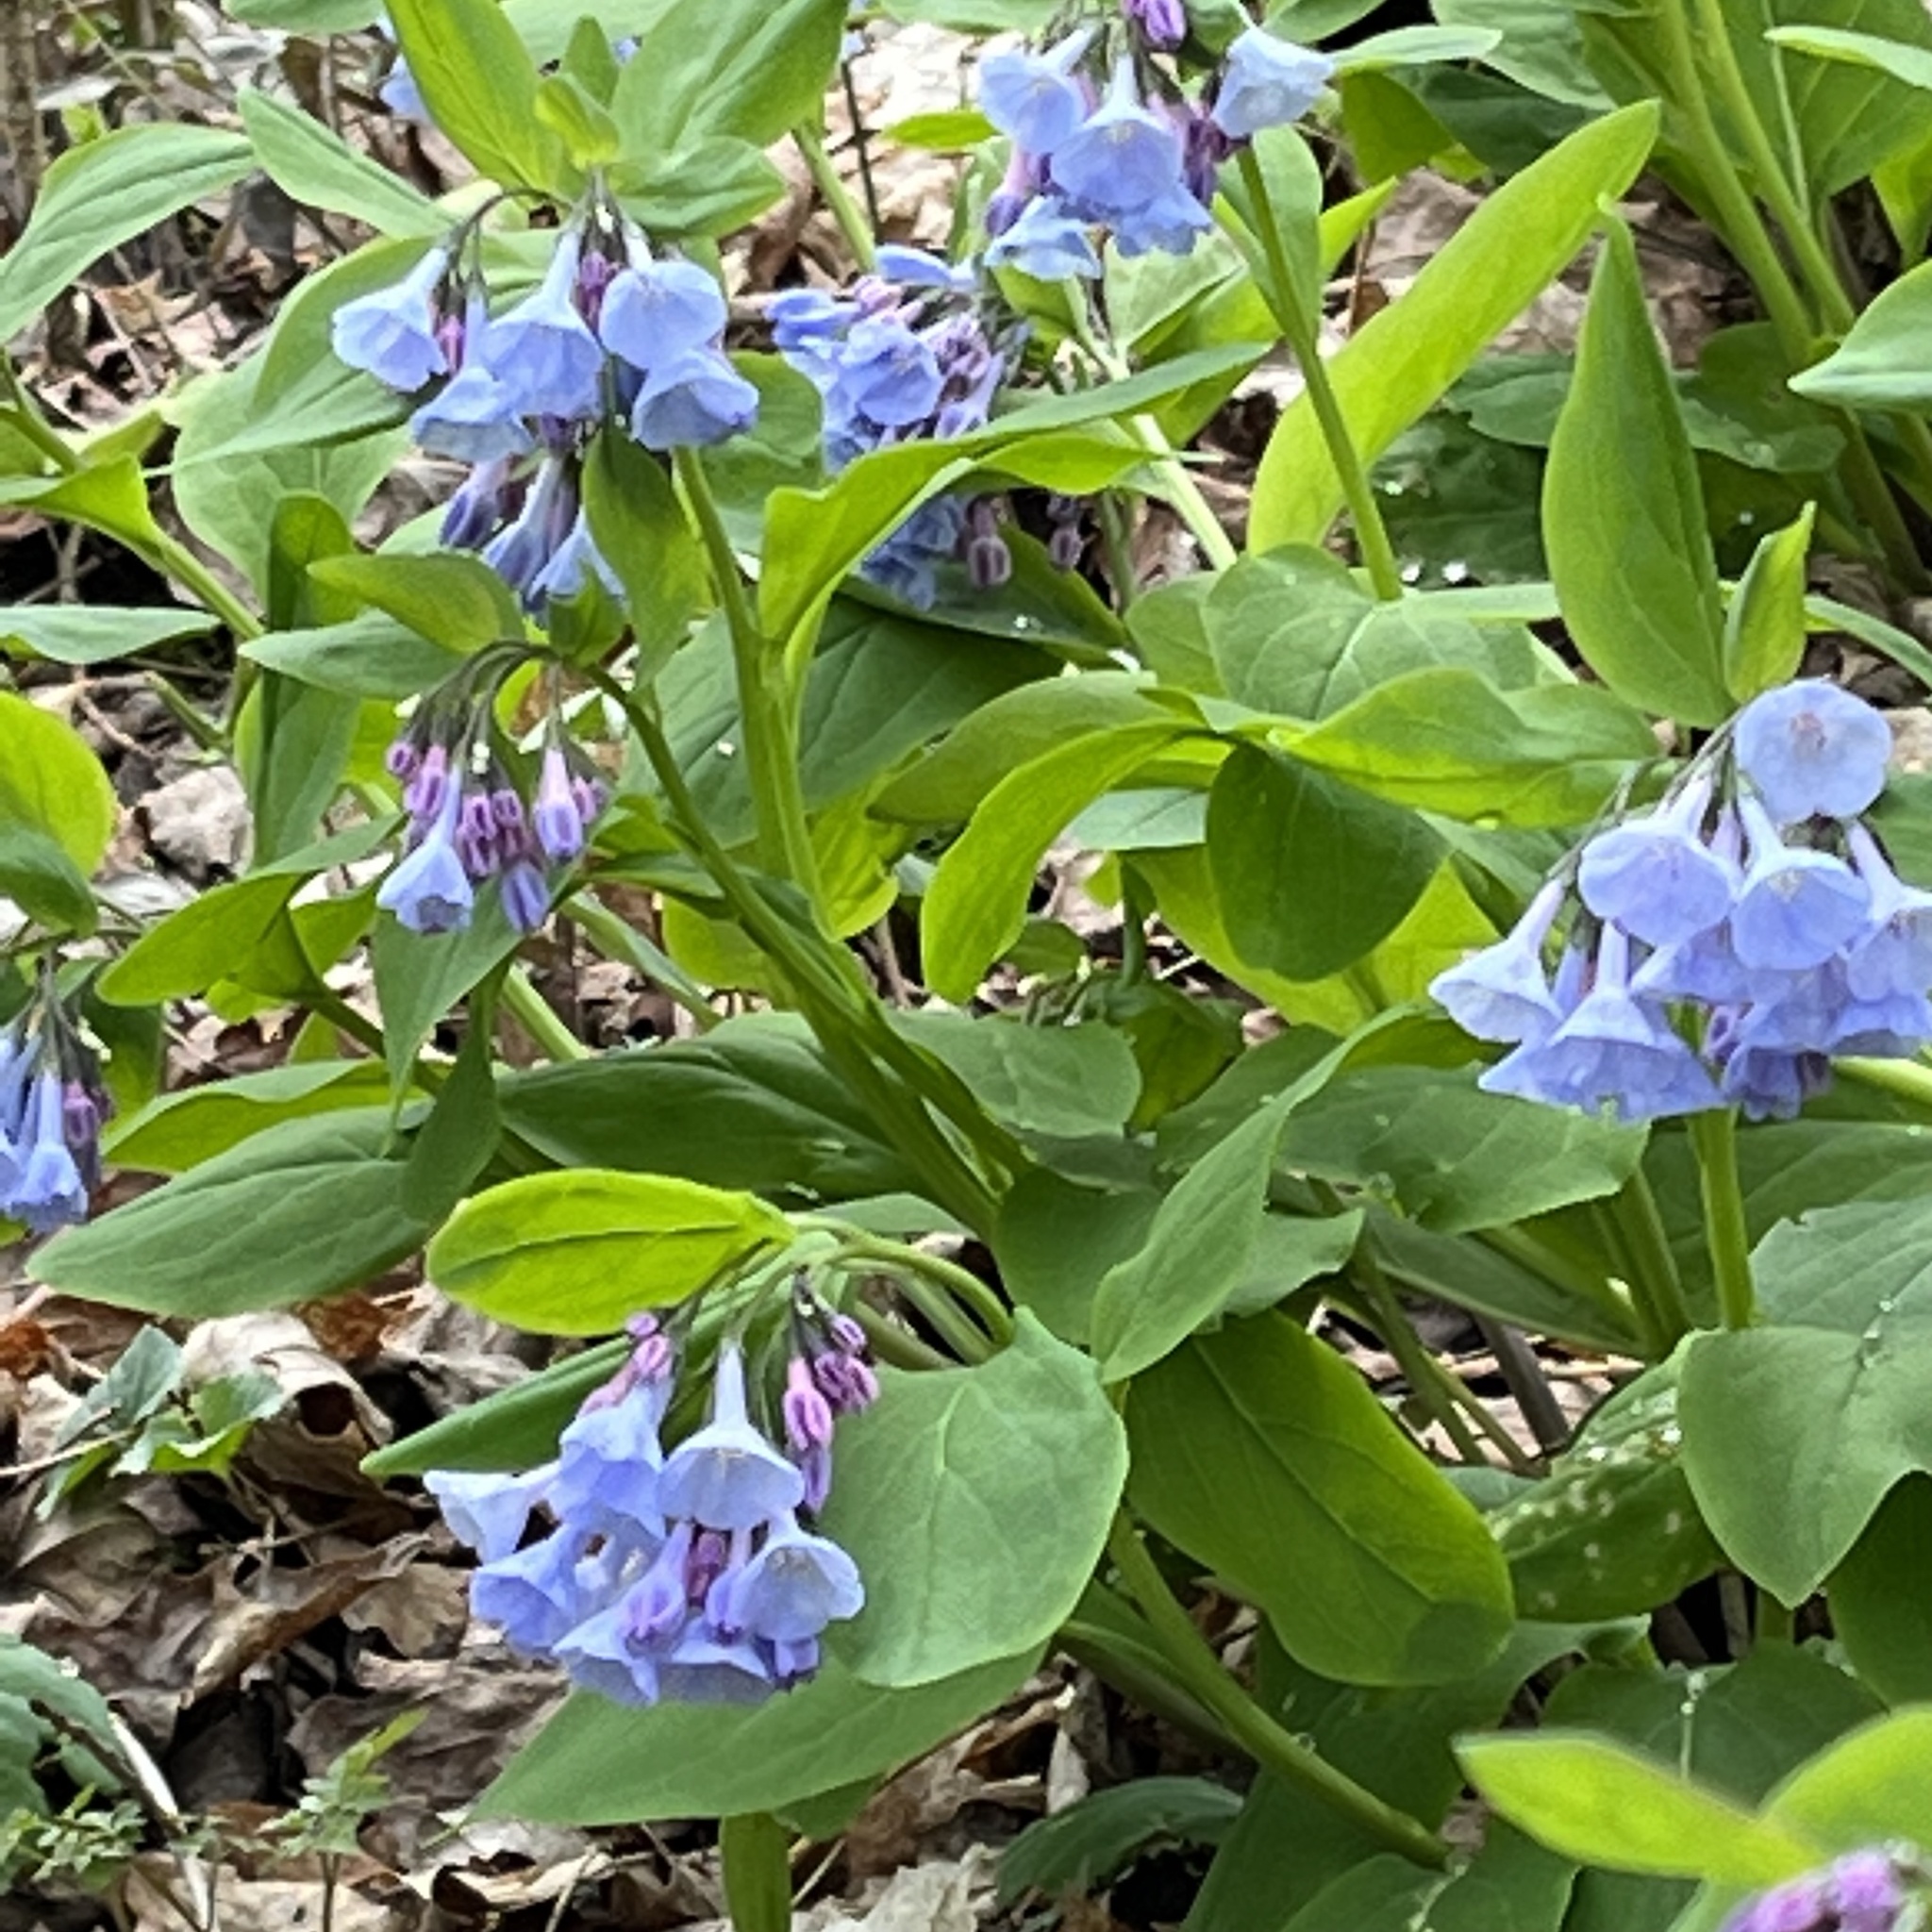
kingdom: Plantae
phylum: Tracheophyta
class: Magnoliopsida
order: Boraginales
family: Boraginaceae
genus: Mertensia
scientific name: Mertensia virginica
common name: Virginia bluebells
